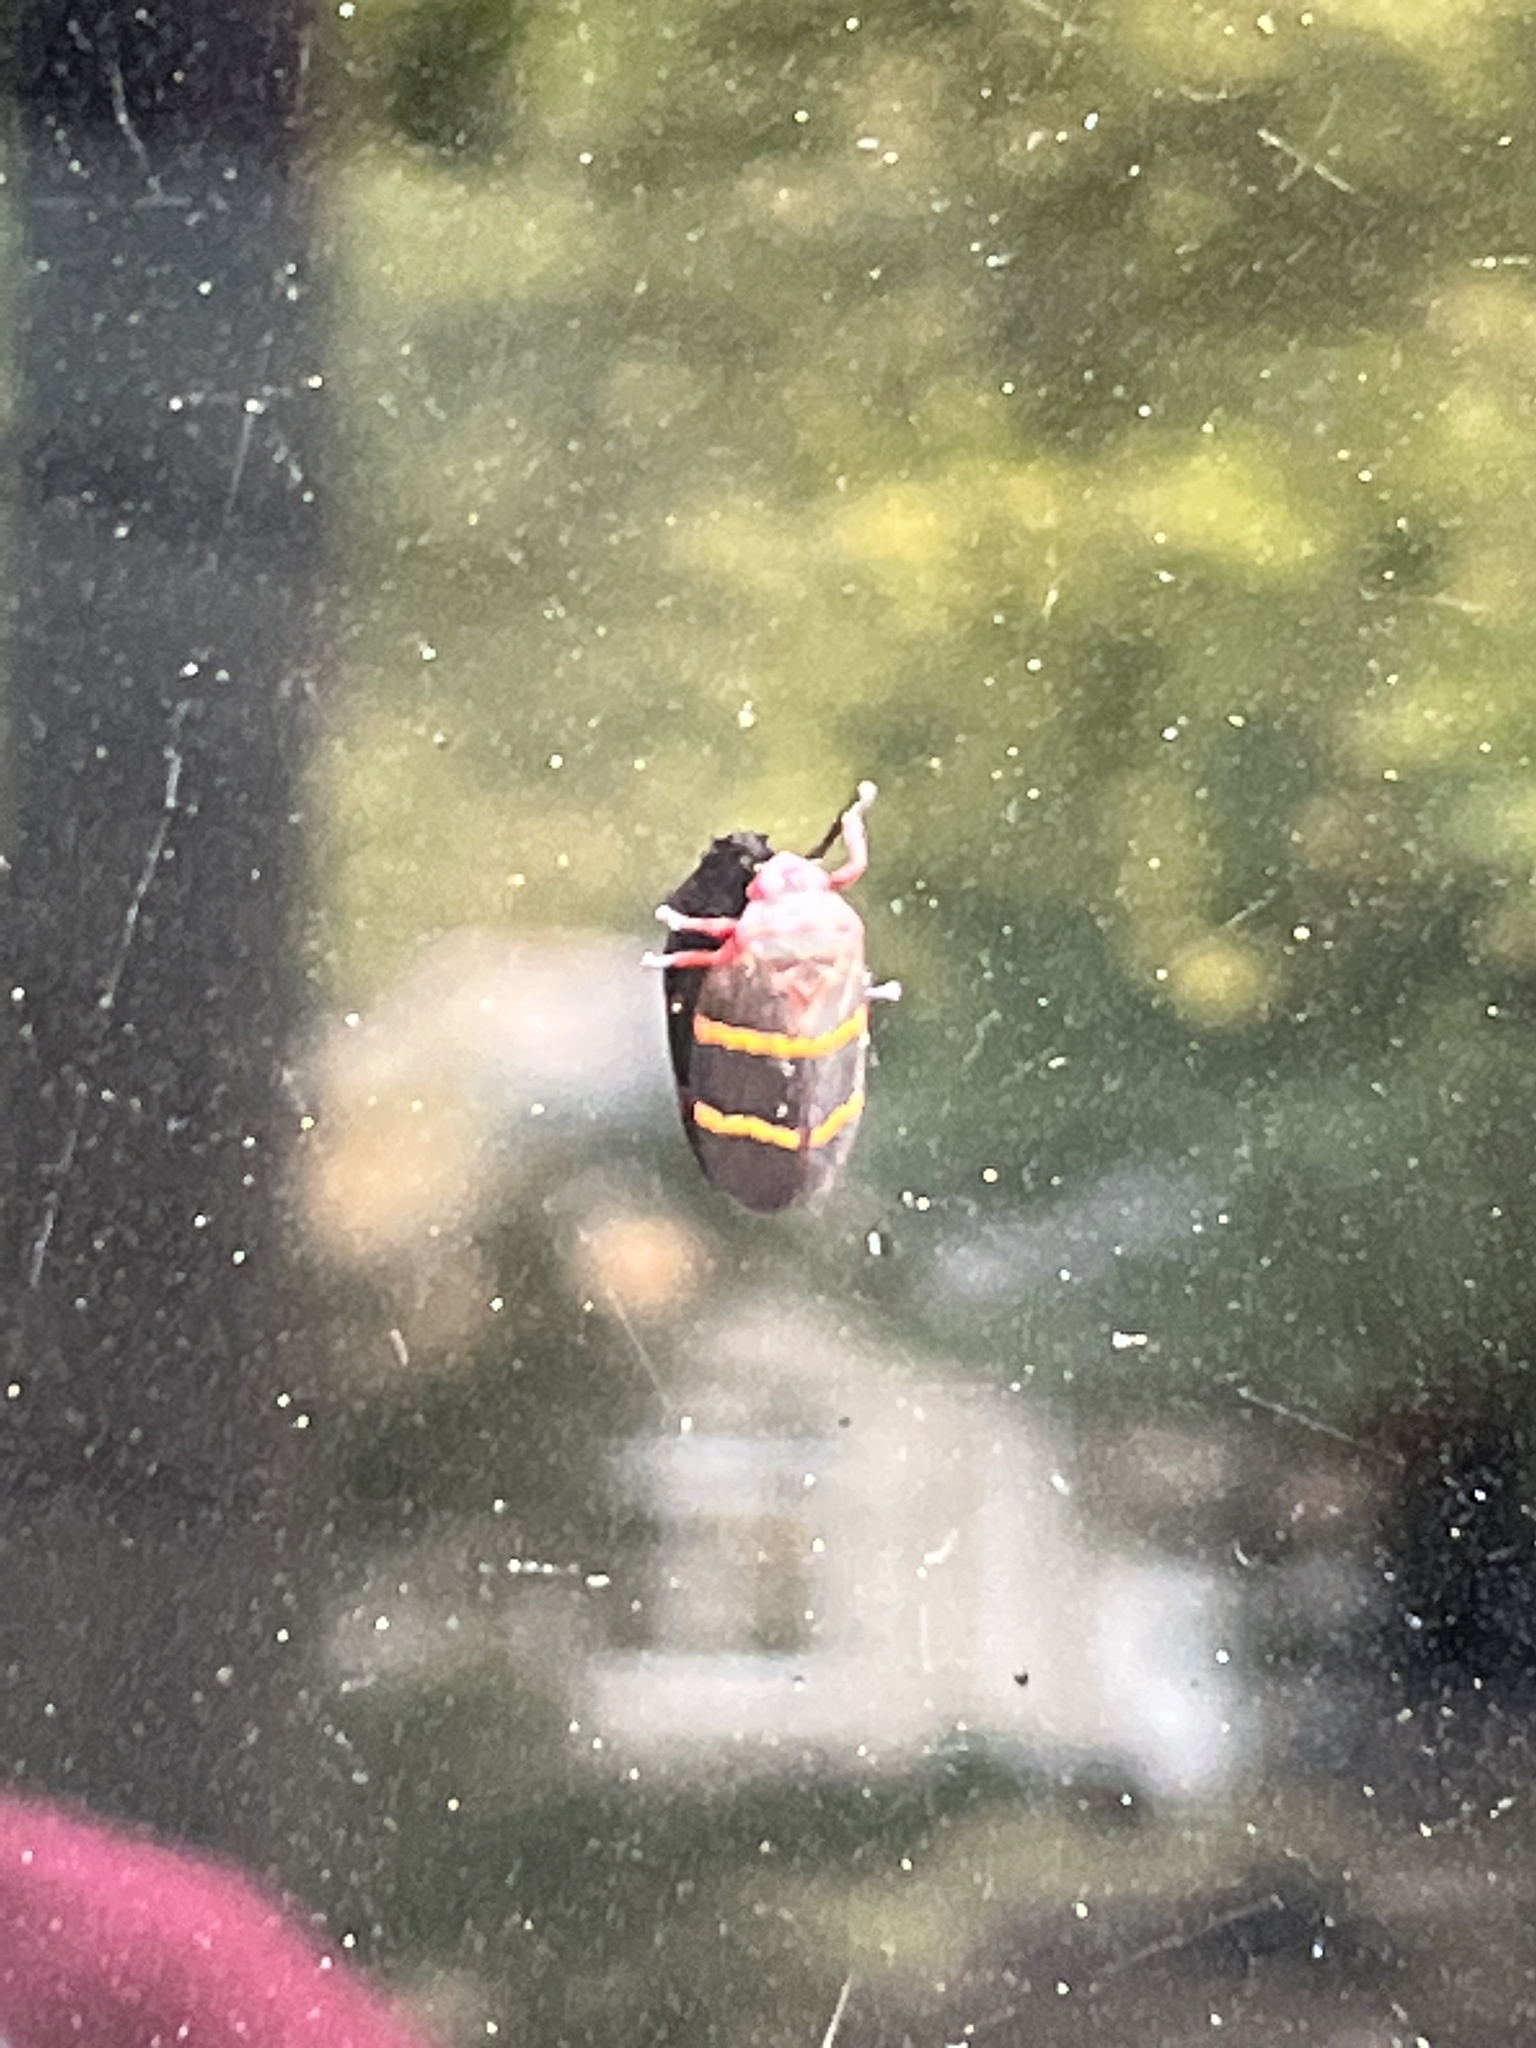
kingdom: Animalia
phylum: Arthropoda
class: Insecta
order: Hemiptera
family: Cercopidae
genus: Prosapia
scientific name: Prosapia bicincta
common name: Twolined spittlebug
